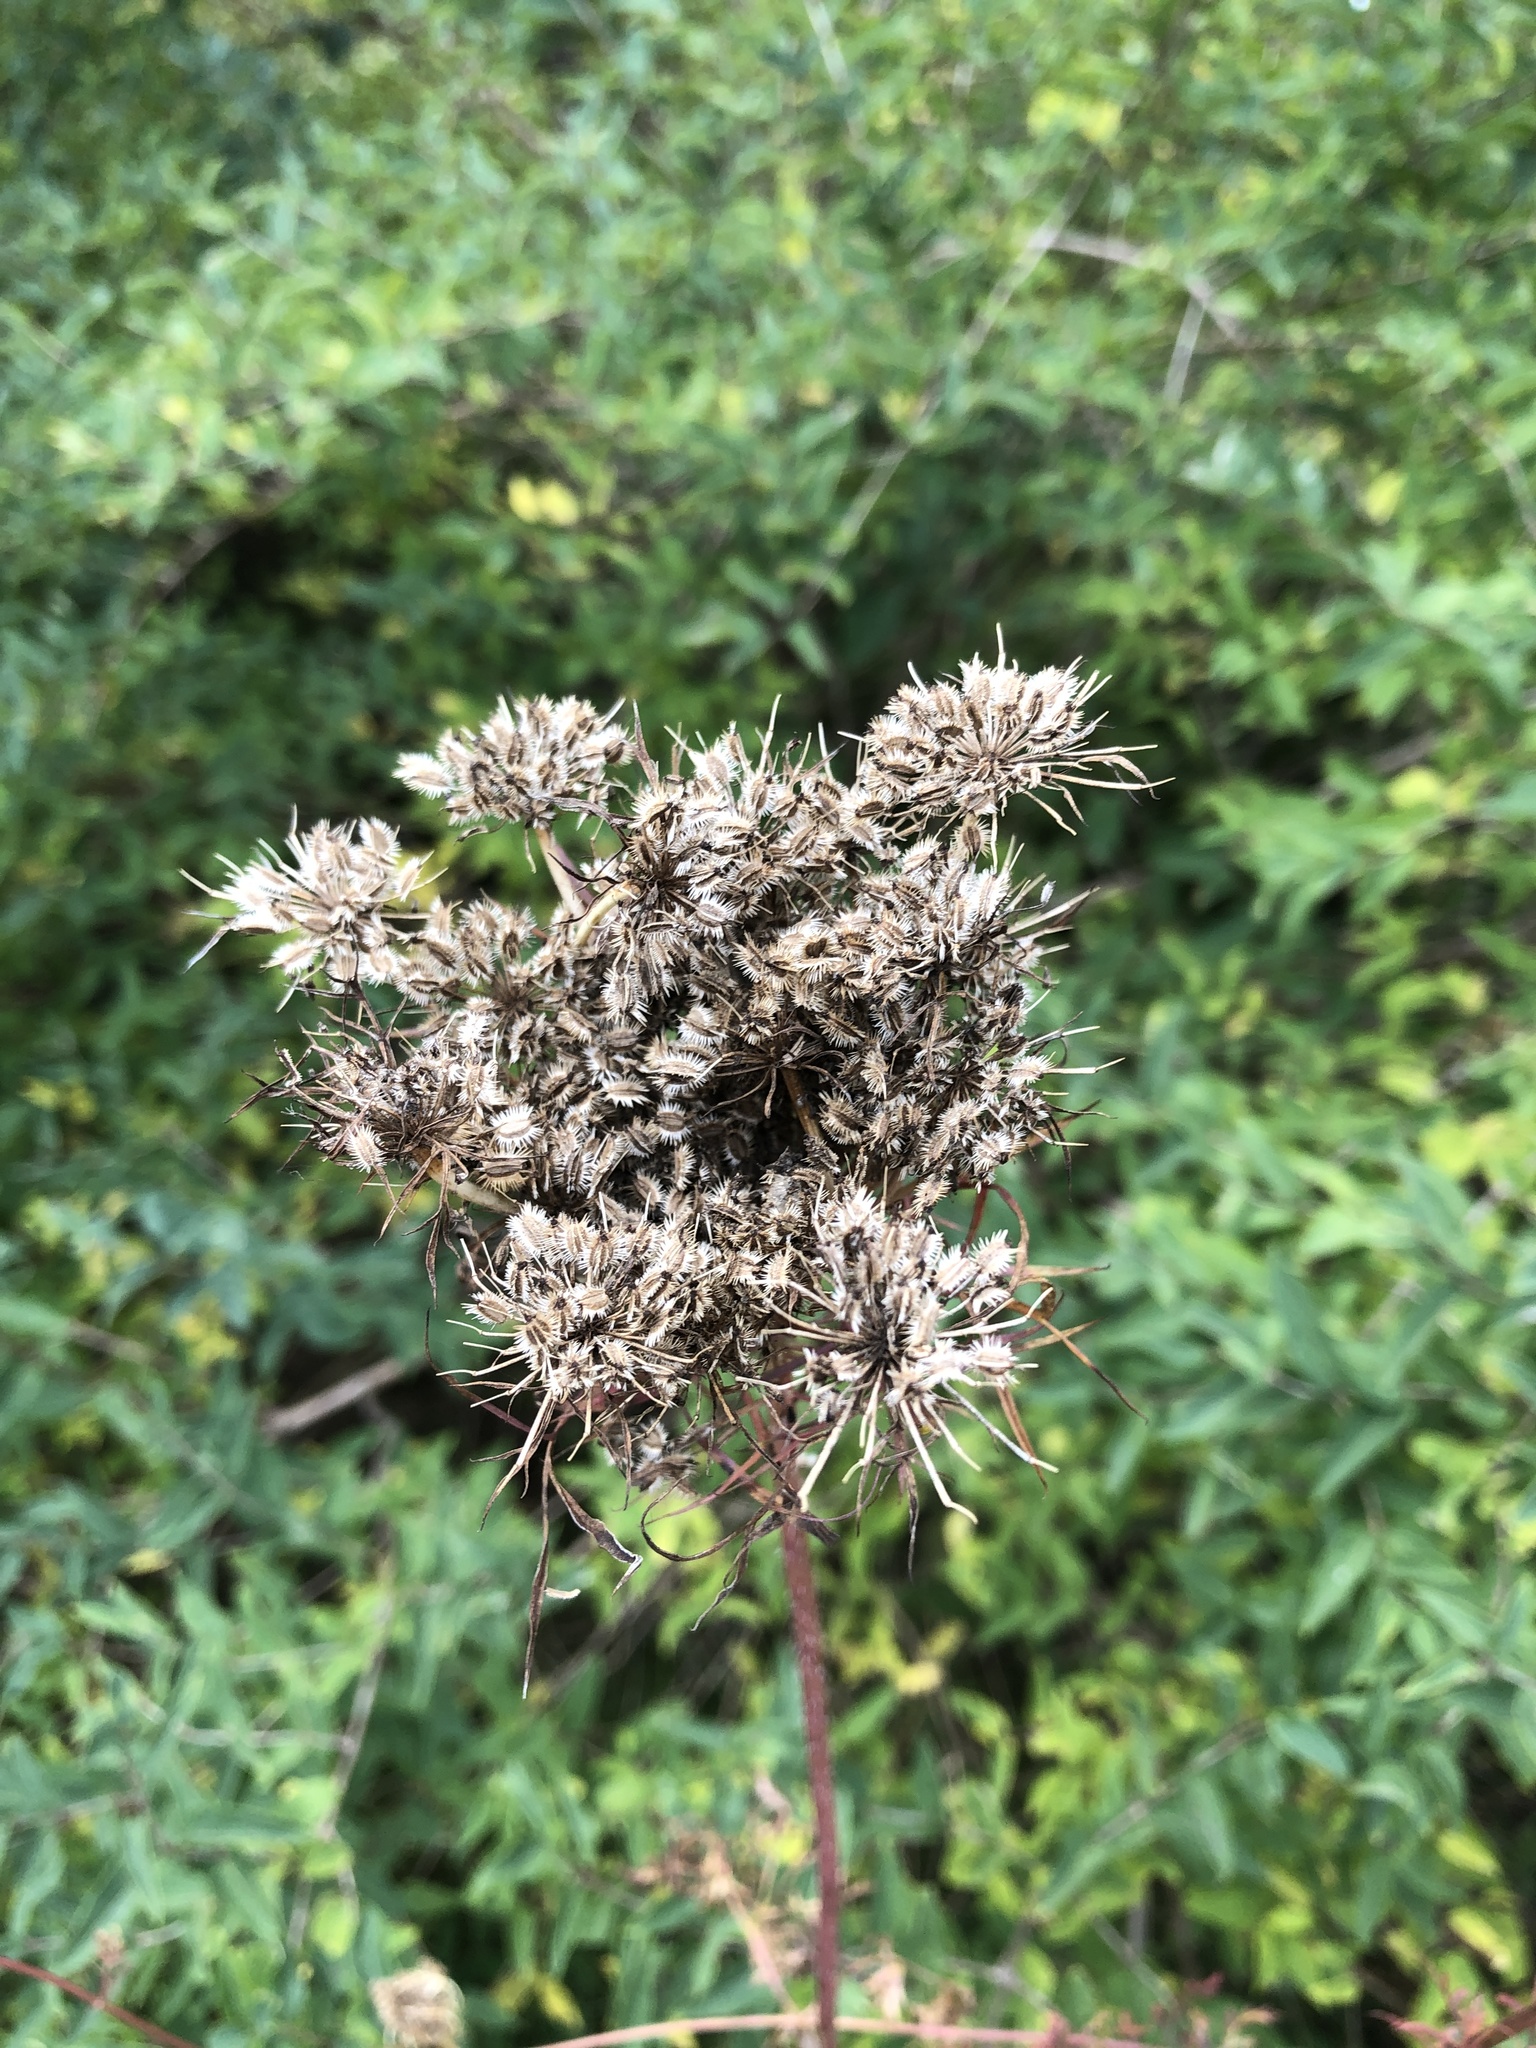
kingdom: Plantae
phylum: Tracheophyta
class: Magnoliopsida
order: Apiales
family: Apiaceae
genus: Daucus
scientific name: Daucus carota
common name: Wild carrot
